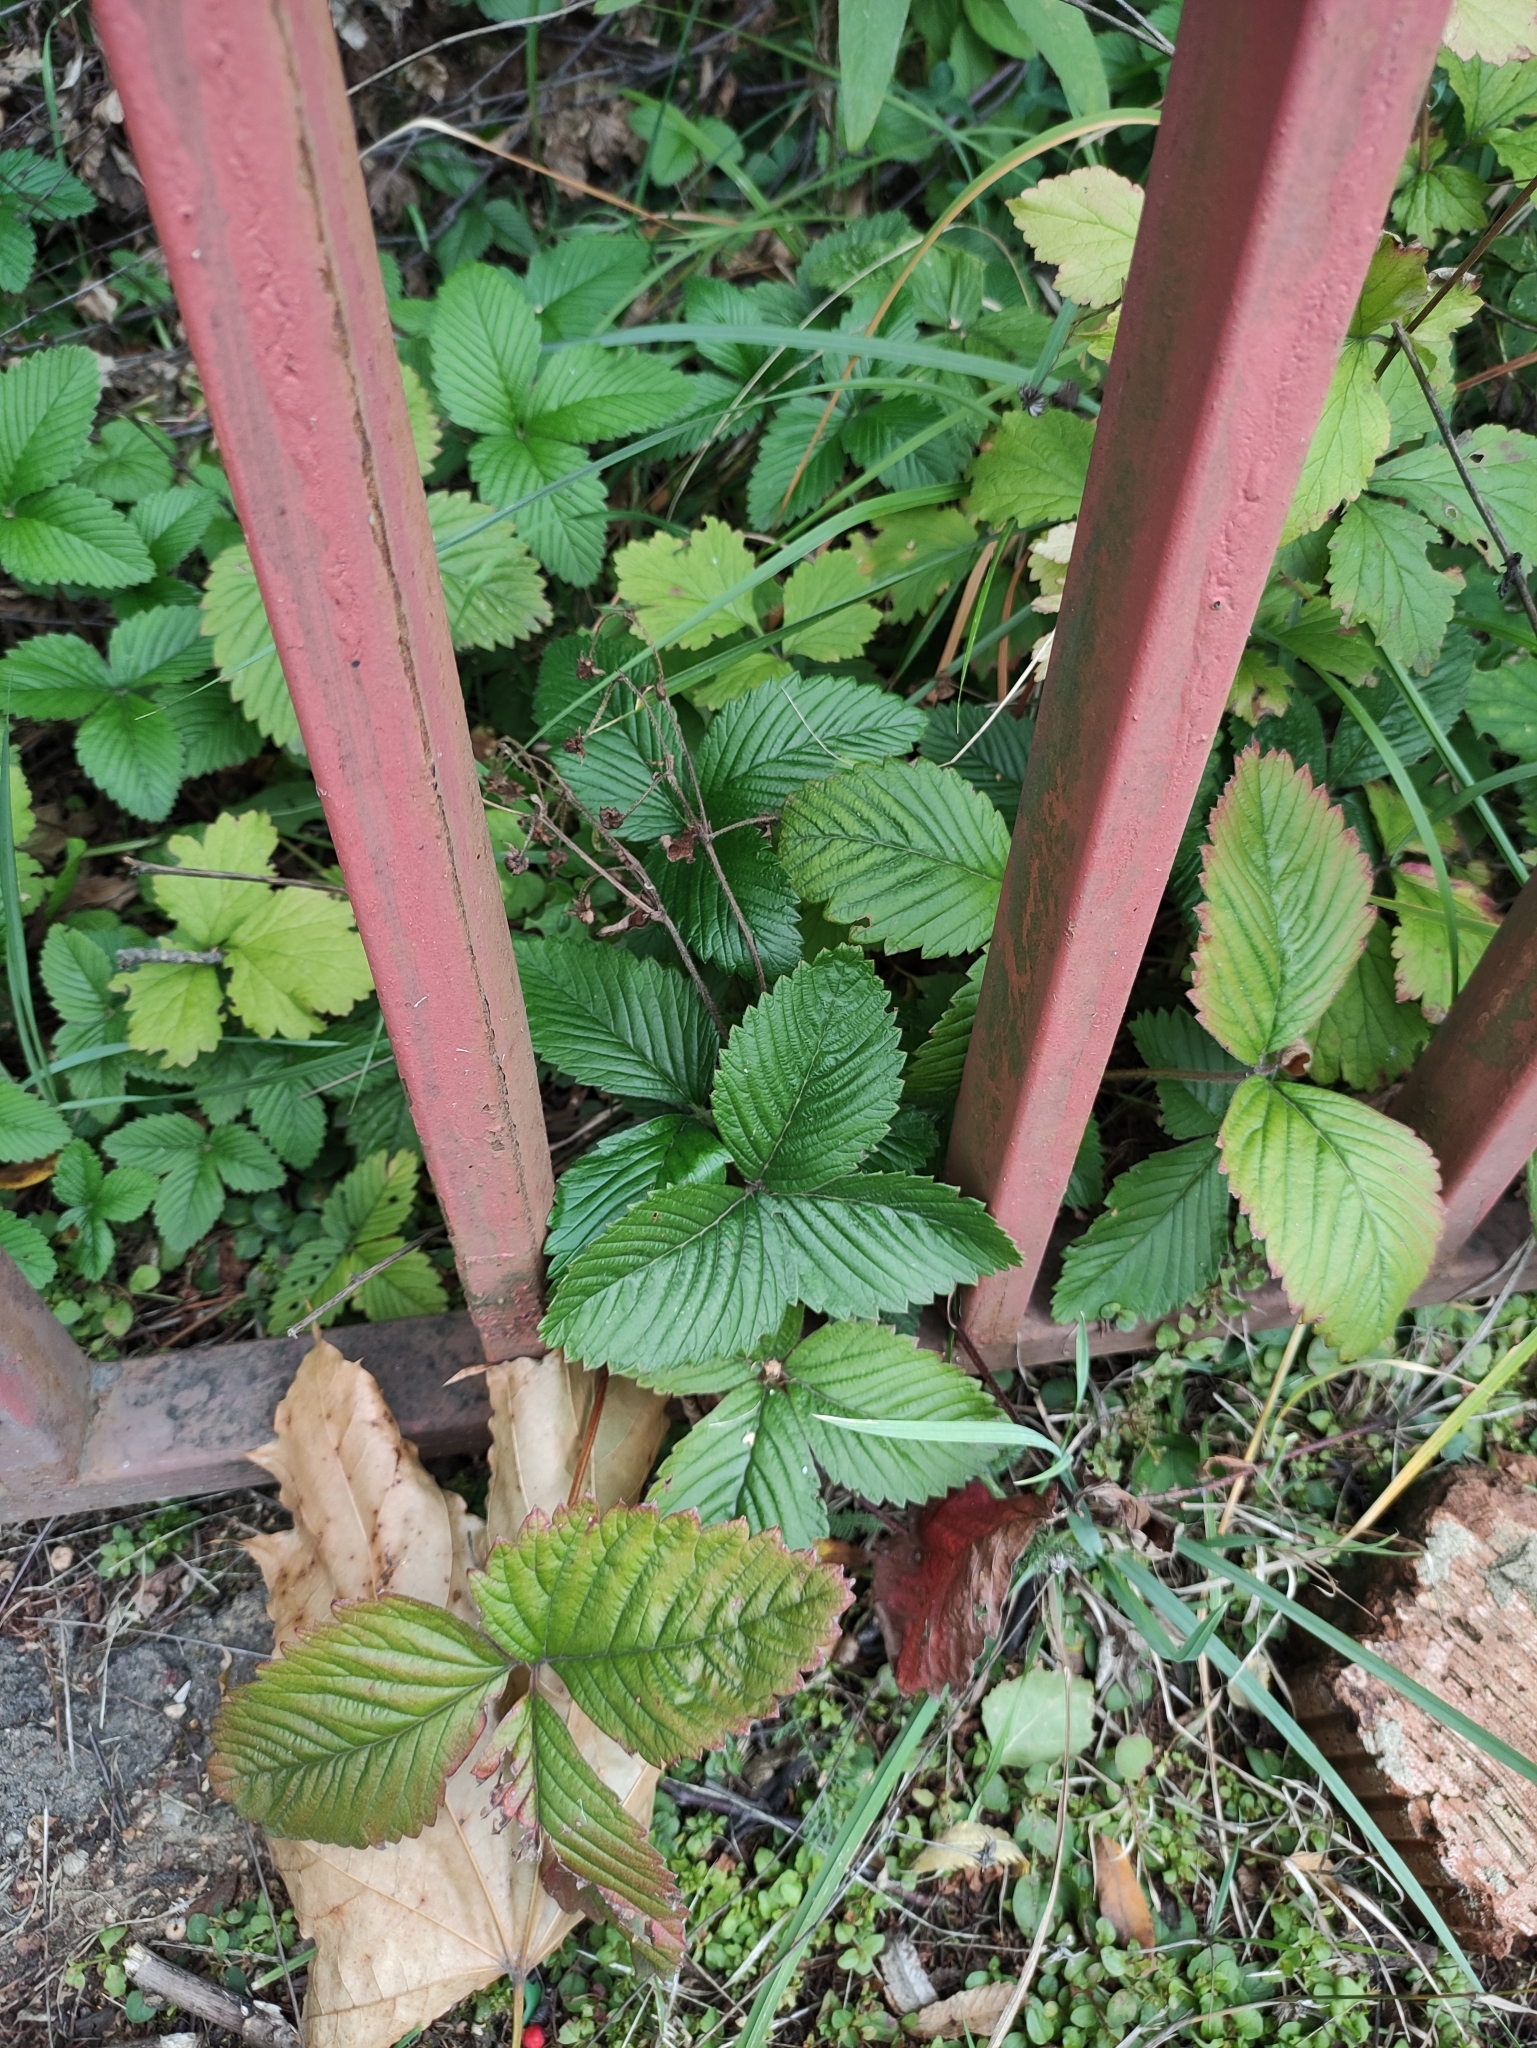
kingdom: Plantae
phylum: Tracheophyta
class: Magnoliopsida
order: Rosales
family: Rosaceae
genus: Fragaria
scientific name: Fragaria moschata
